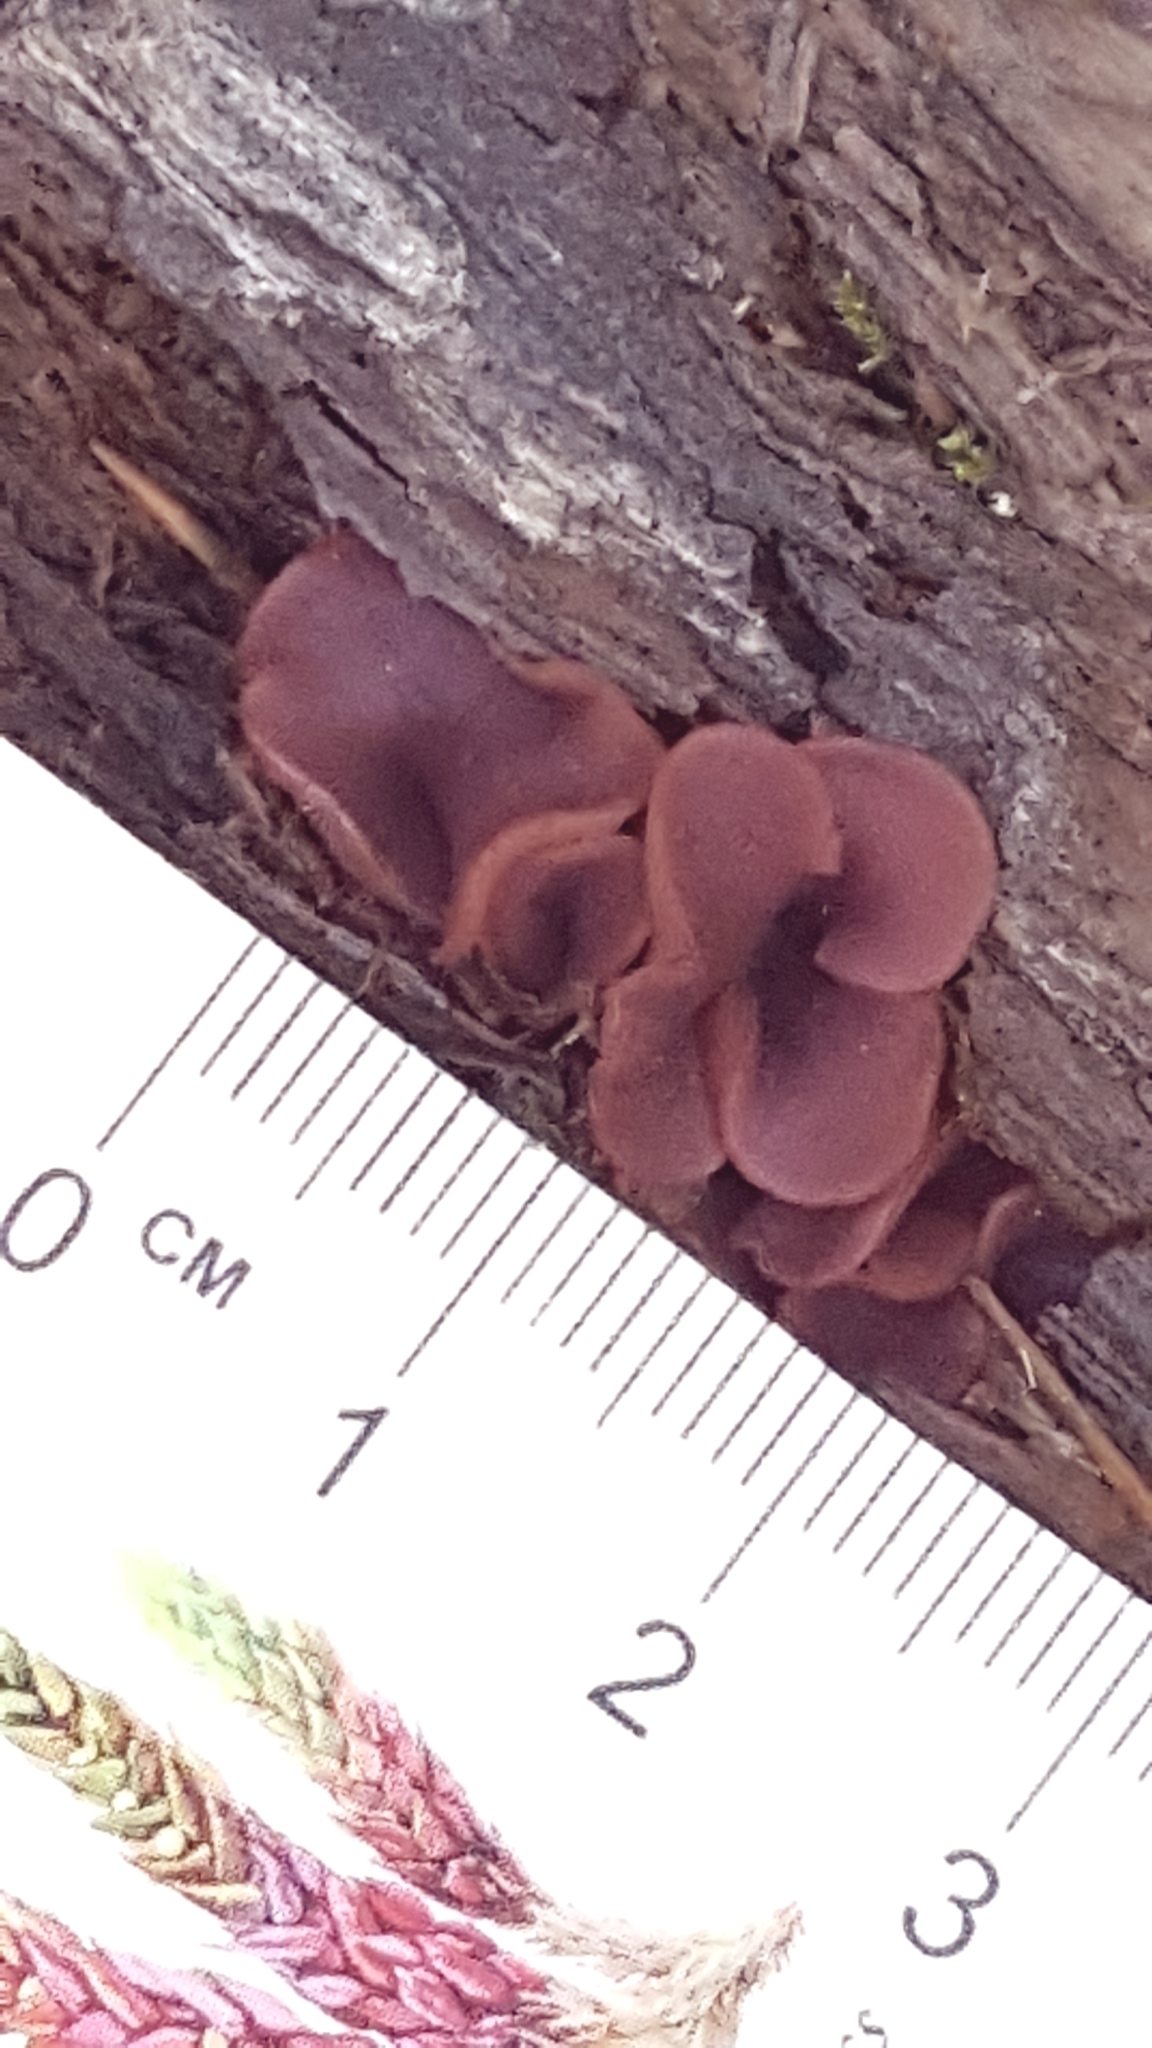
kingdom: Fungi
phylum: Ascomycota
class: Leotiomycetes
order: Helotiales
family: Gelatinodiscaceae
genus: Ascocoryne
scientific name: Ascocoryne sarcoides
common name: Purple jellydisc
